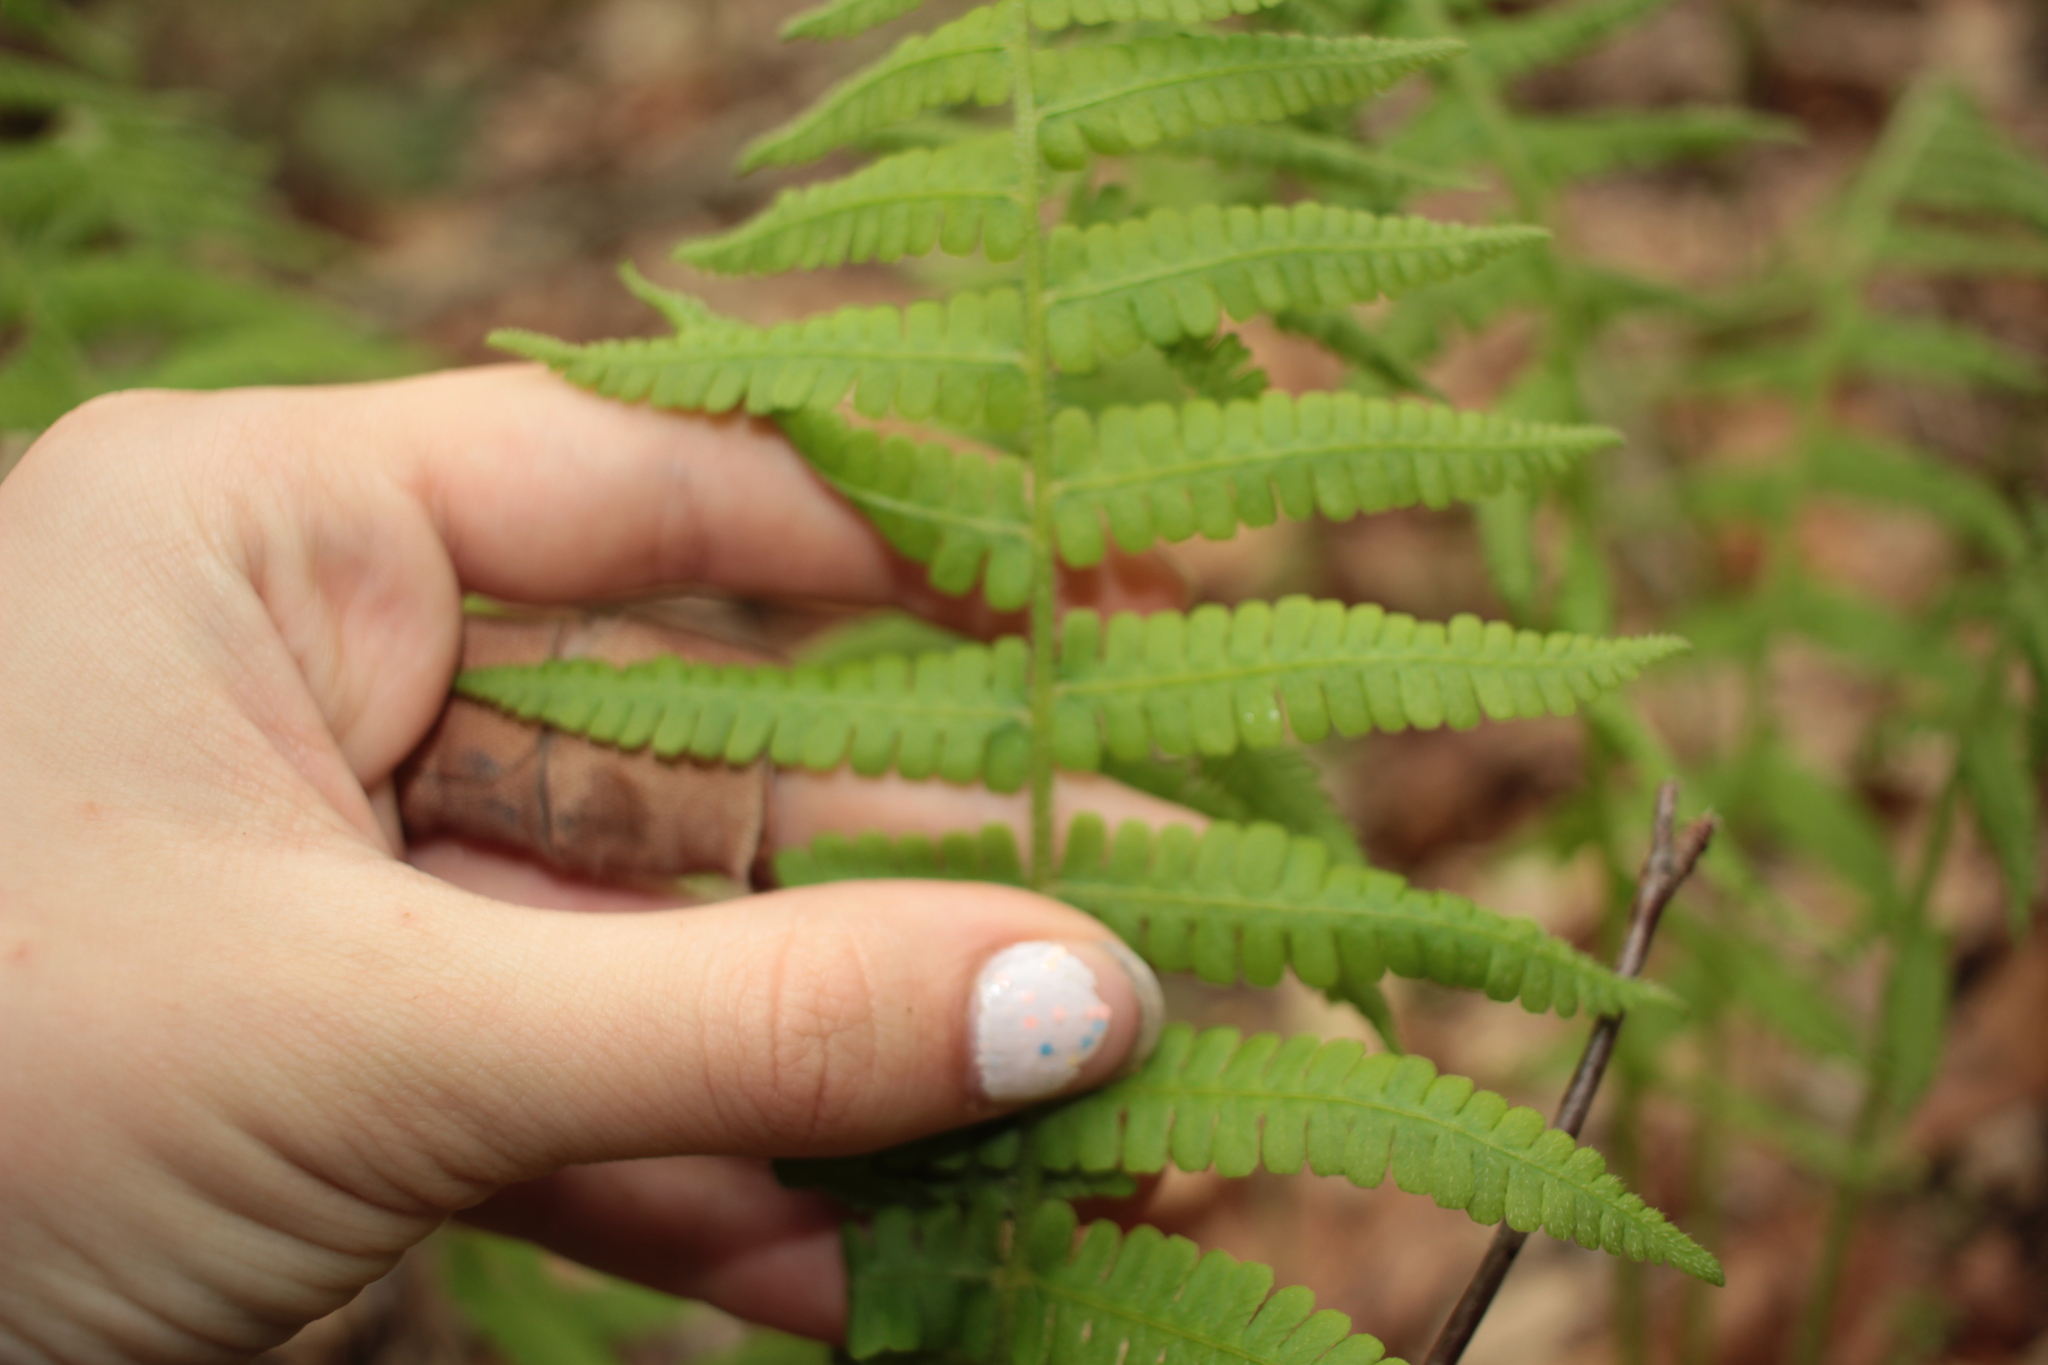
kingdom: Plantae
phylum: Tracheophyta
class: Polypodiopsida
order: Polypodiales
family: Athyriaceae
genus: Deparia
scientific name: Deparia acrostichoides
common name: Silver false spleenwort
